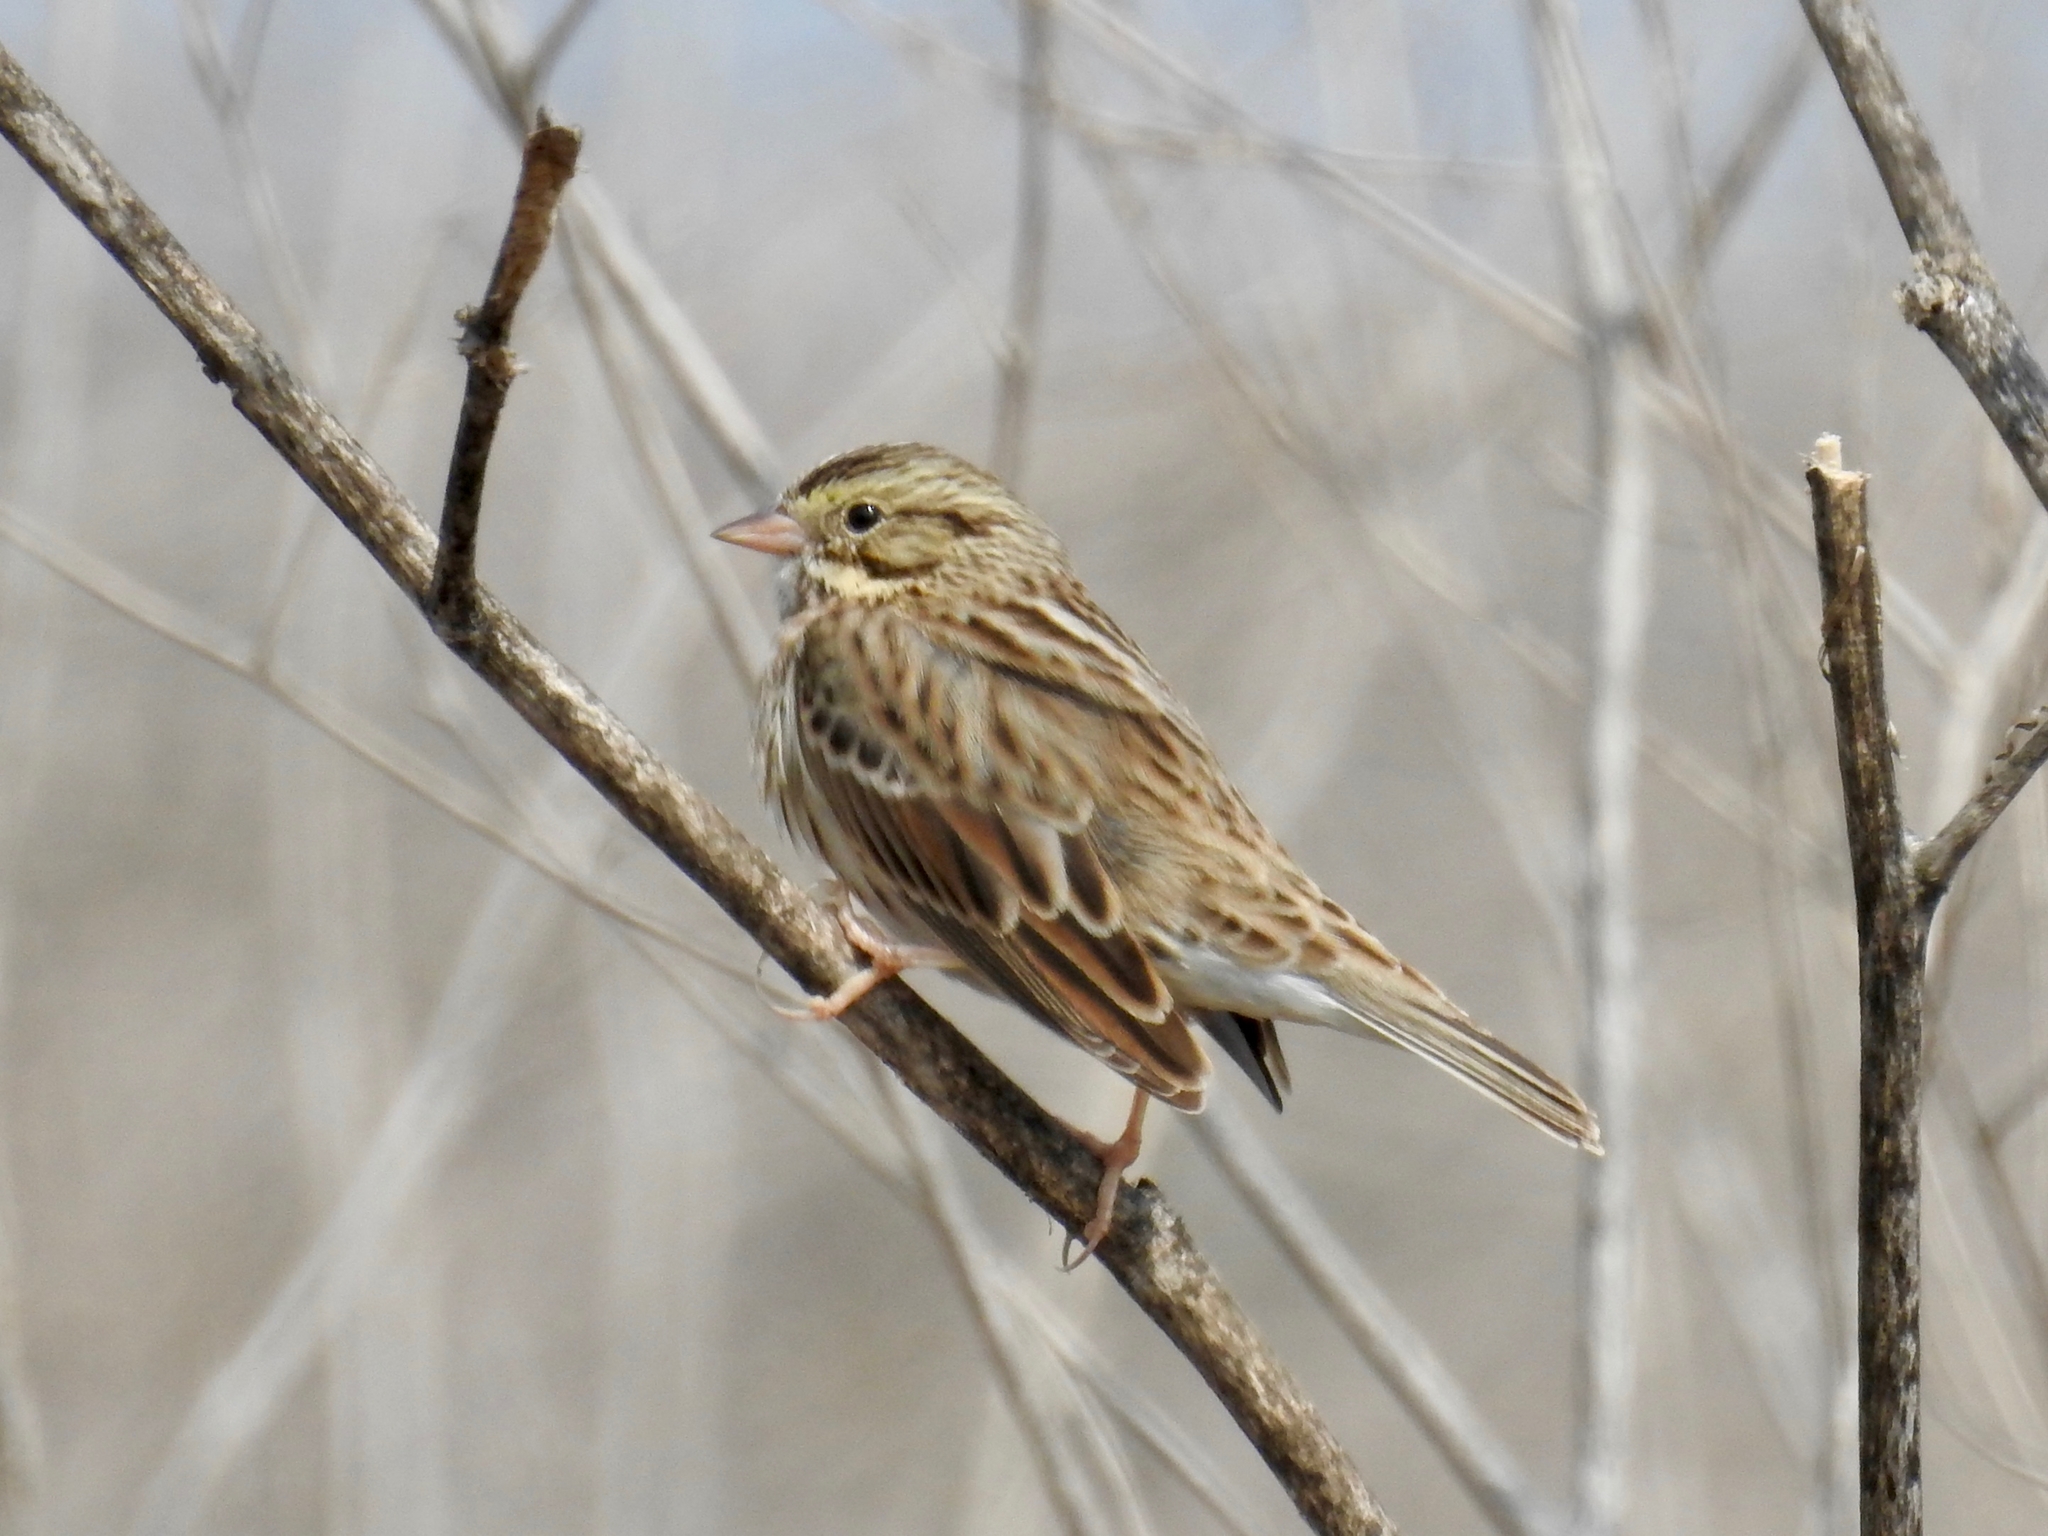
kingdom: Animalia
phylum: Chordata
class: Aves
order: Passeriformes
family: Passerellidae
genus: Passerculus
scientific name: Passerculus sandwichensis
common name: Savannah sparrow
